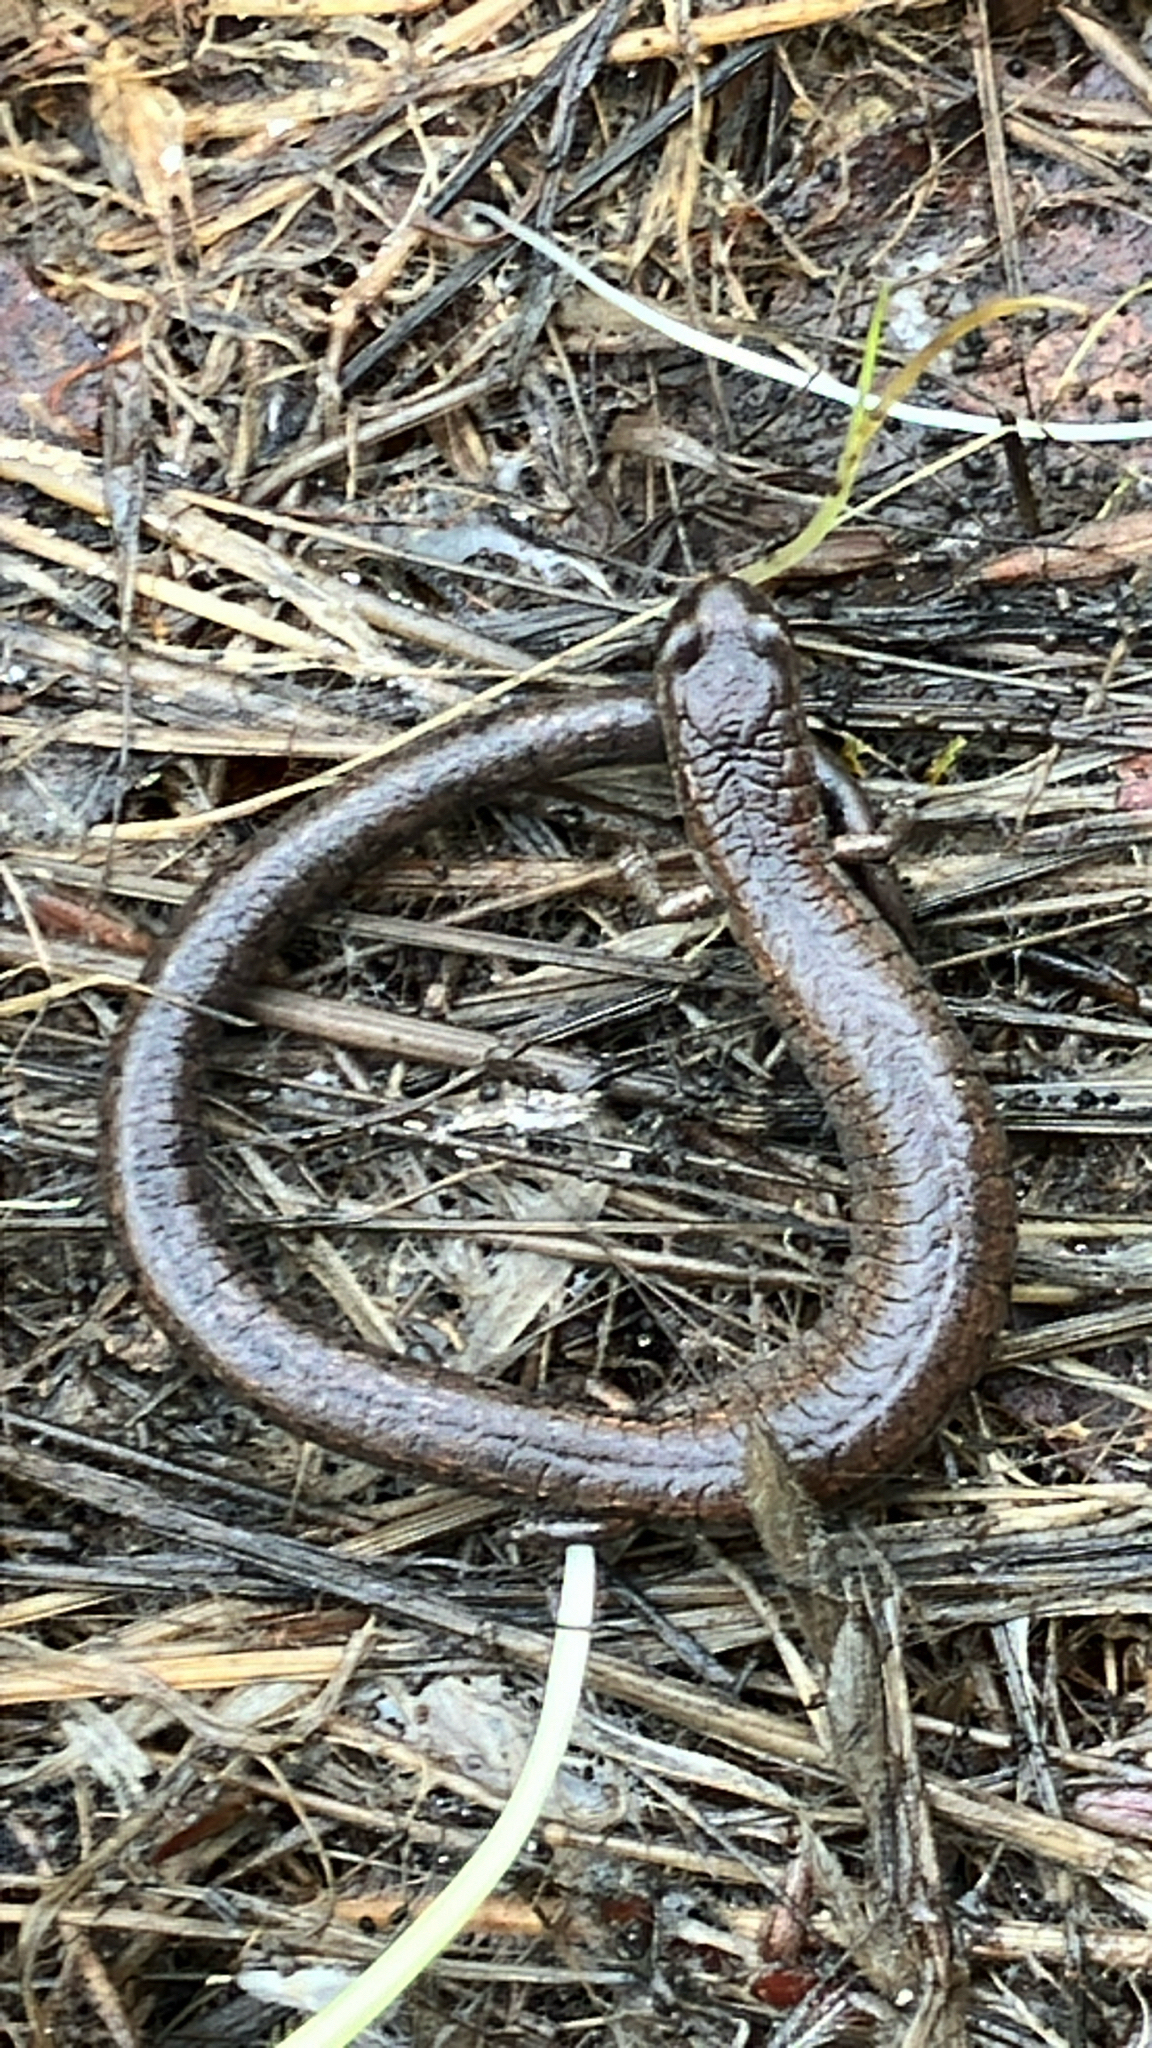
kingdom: Animalia
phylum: Chordata
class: Amphibia
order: Caudata
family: Plethodontidae
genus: Batrachoseps
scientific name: Batrachoseps attenuatus
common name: California slender salamander
